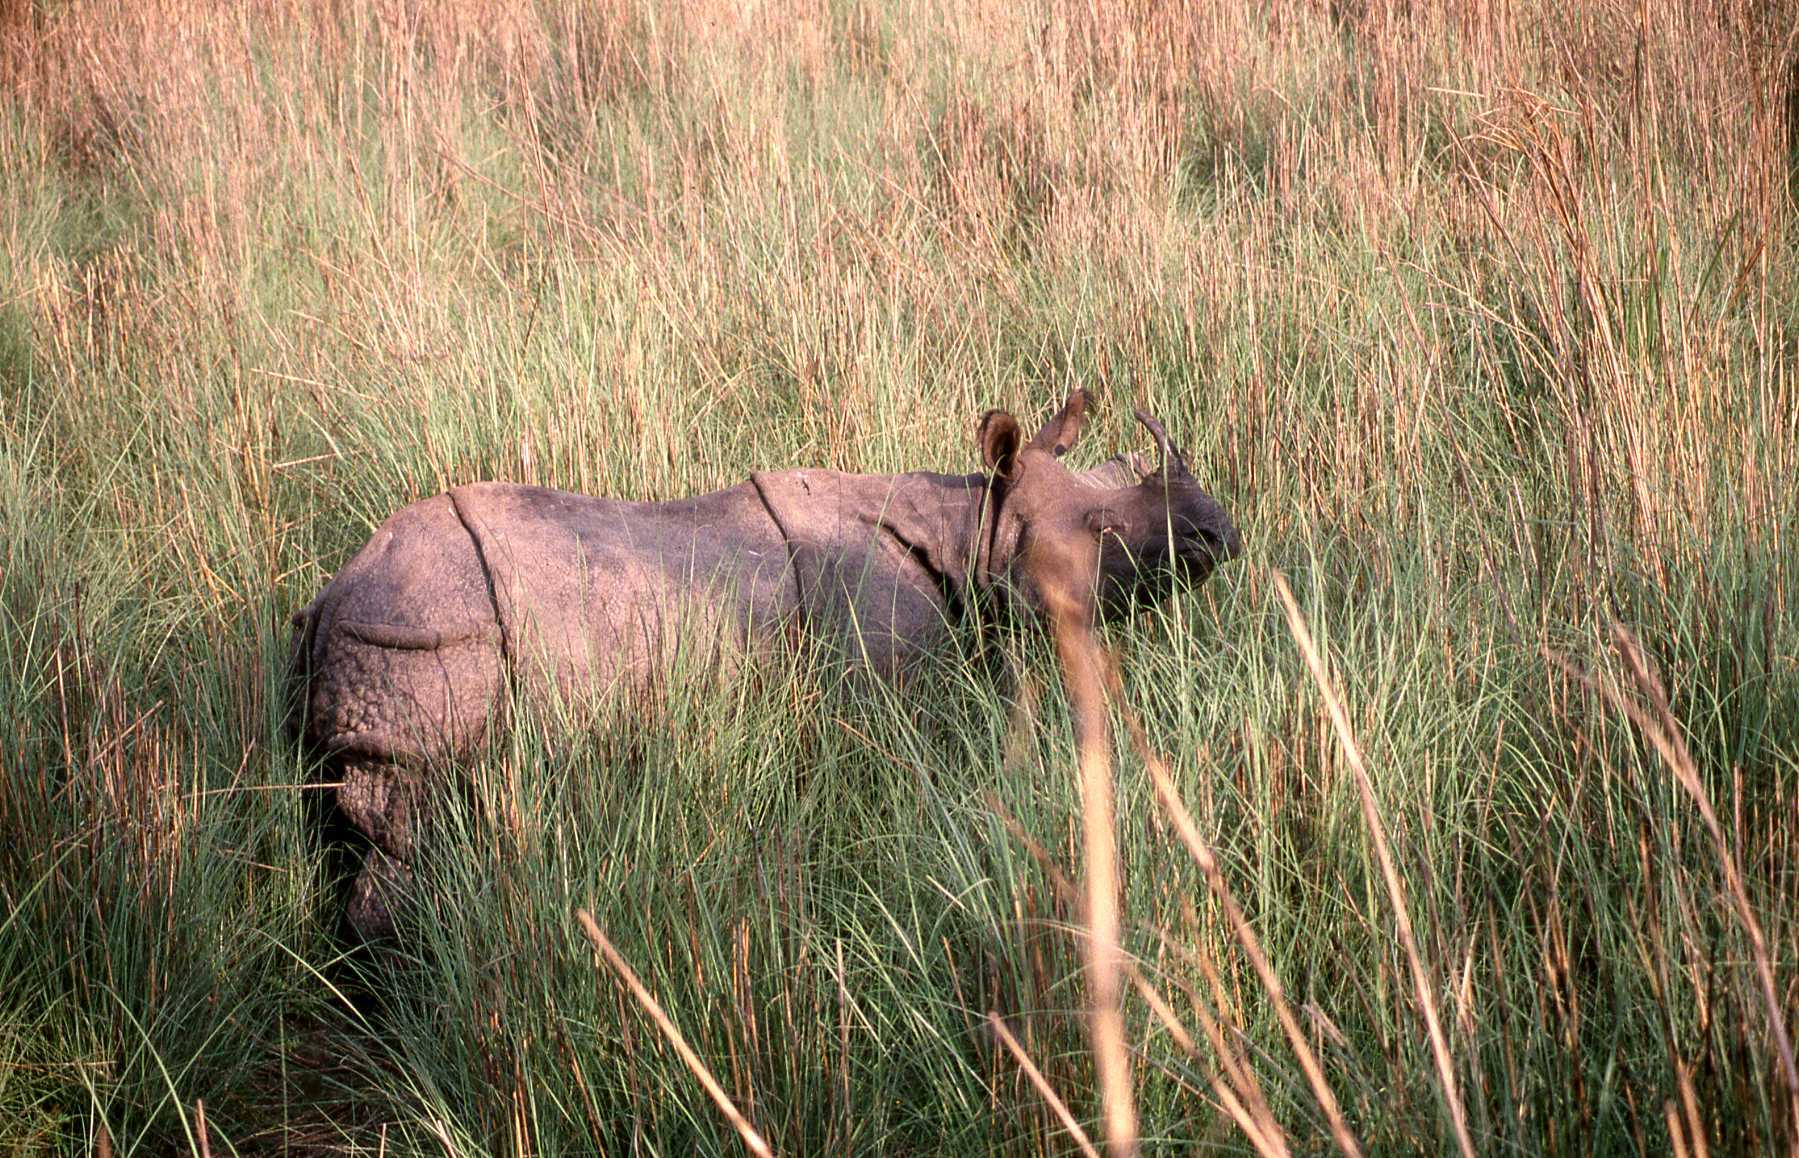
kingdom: Animalia
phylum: Chordata
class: Mammalia
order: Perissodactyla
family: Rhinocerotidae
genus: Rhinoceros
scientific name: Rhinoceros unicornis
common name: Indian rhinoceros
